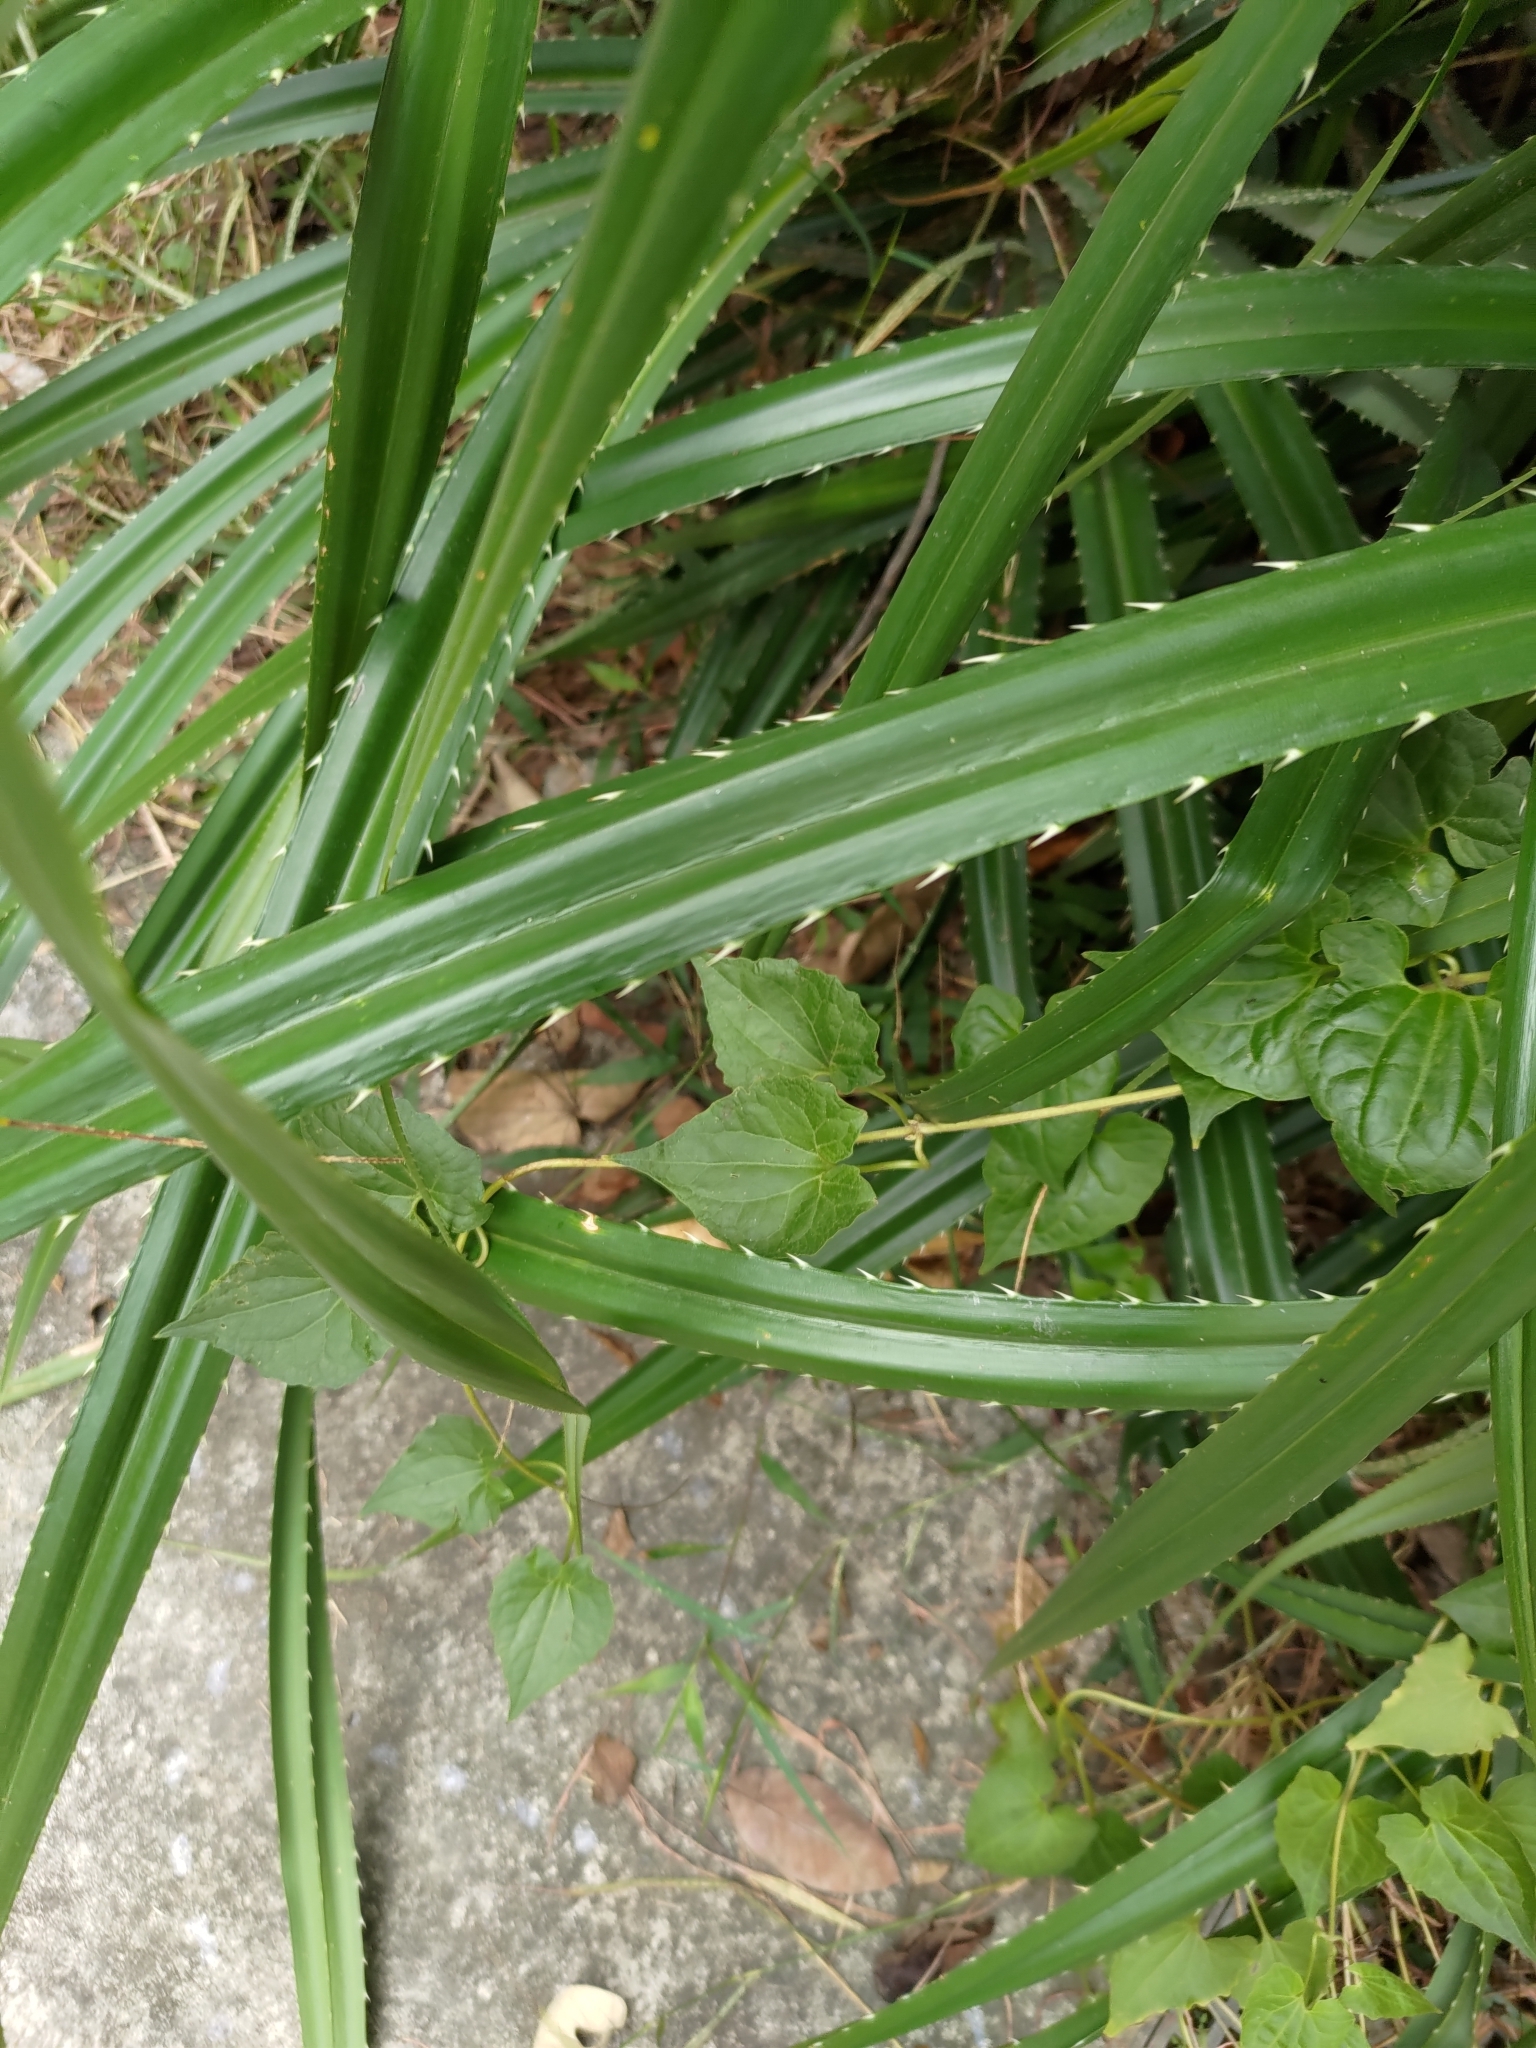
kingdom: Plantae
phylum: Tracheophyta
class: Magnoliopsida
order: Asterales
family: Asteraceae
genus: Mikania
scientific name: Mikania micrantha
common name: Mile-a-minute
